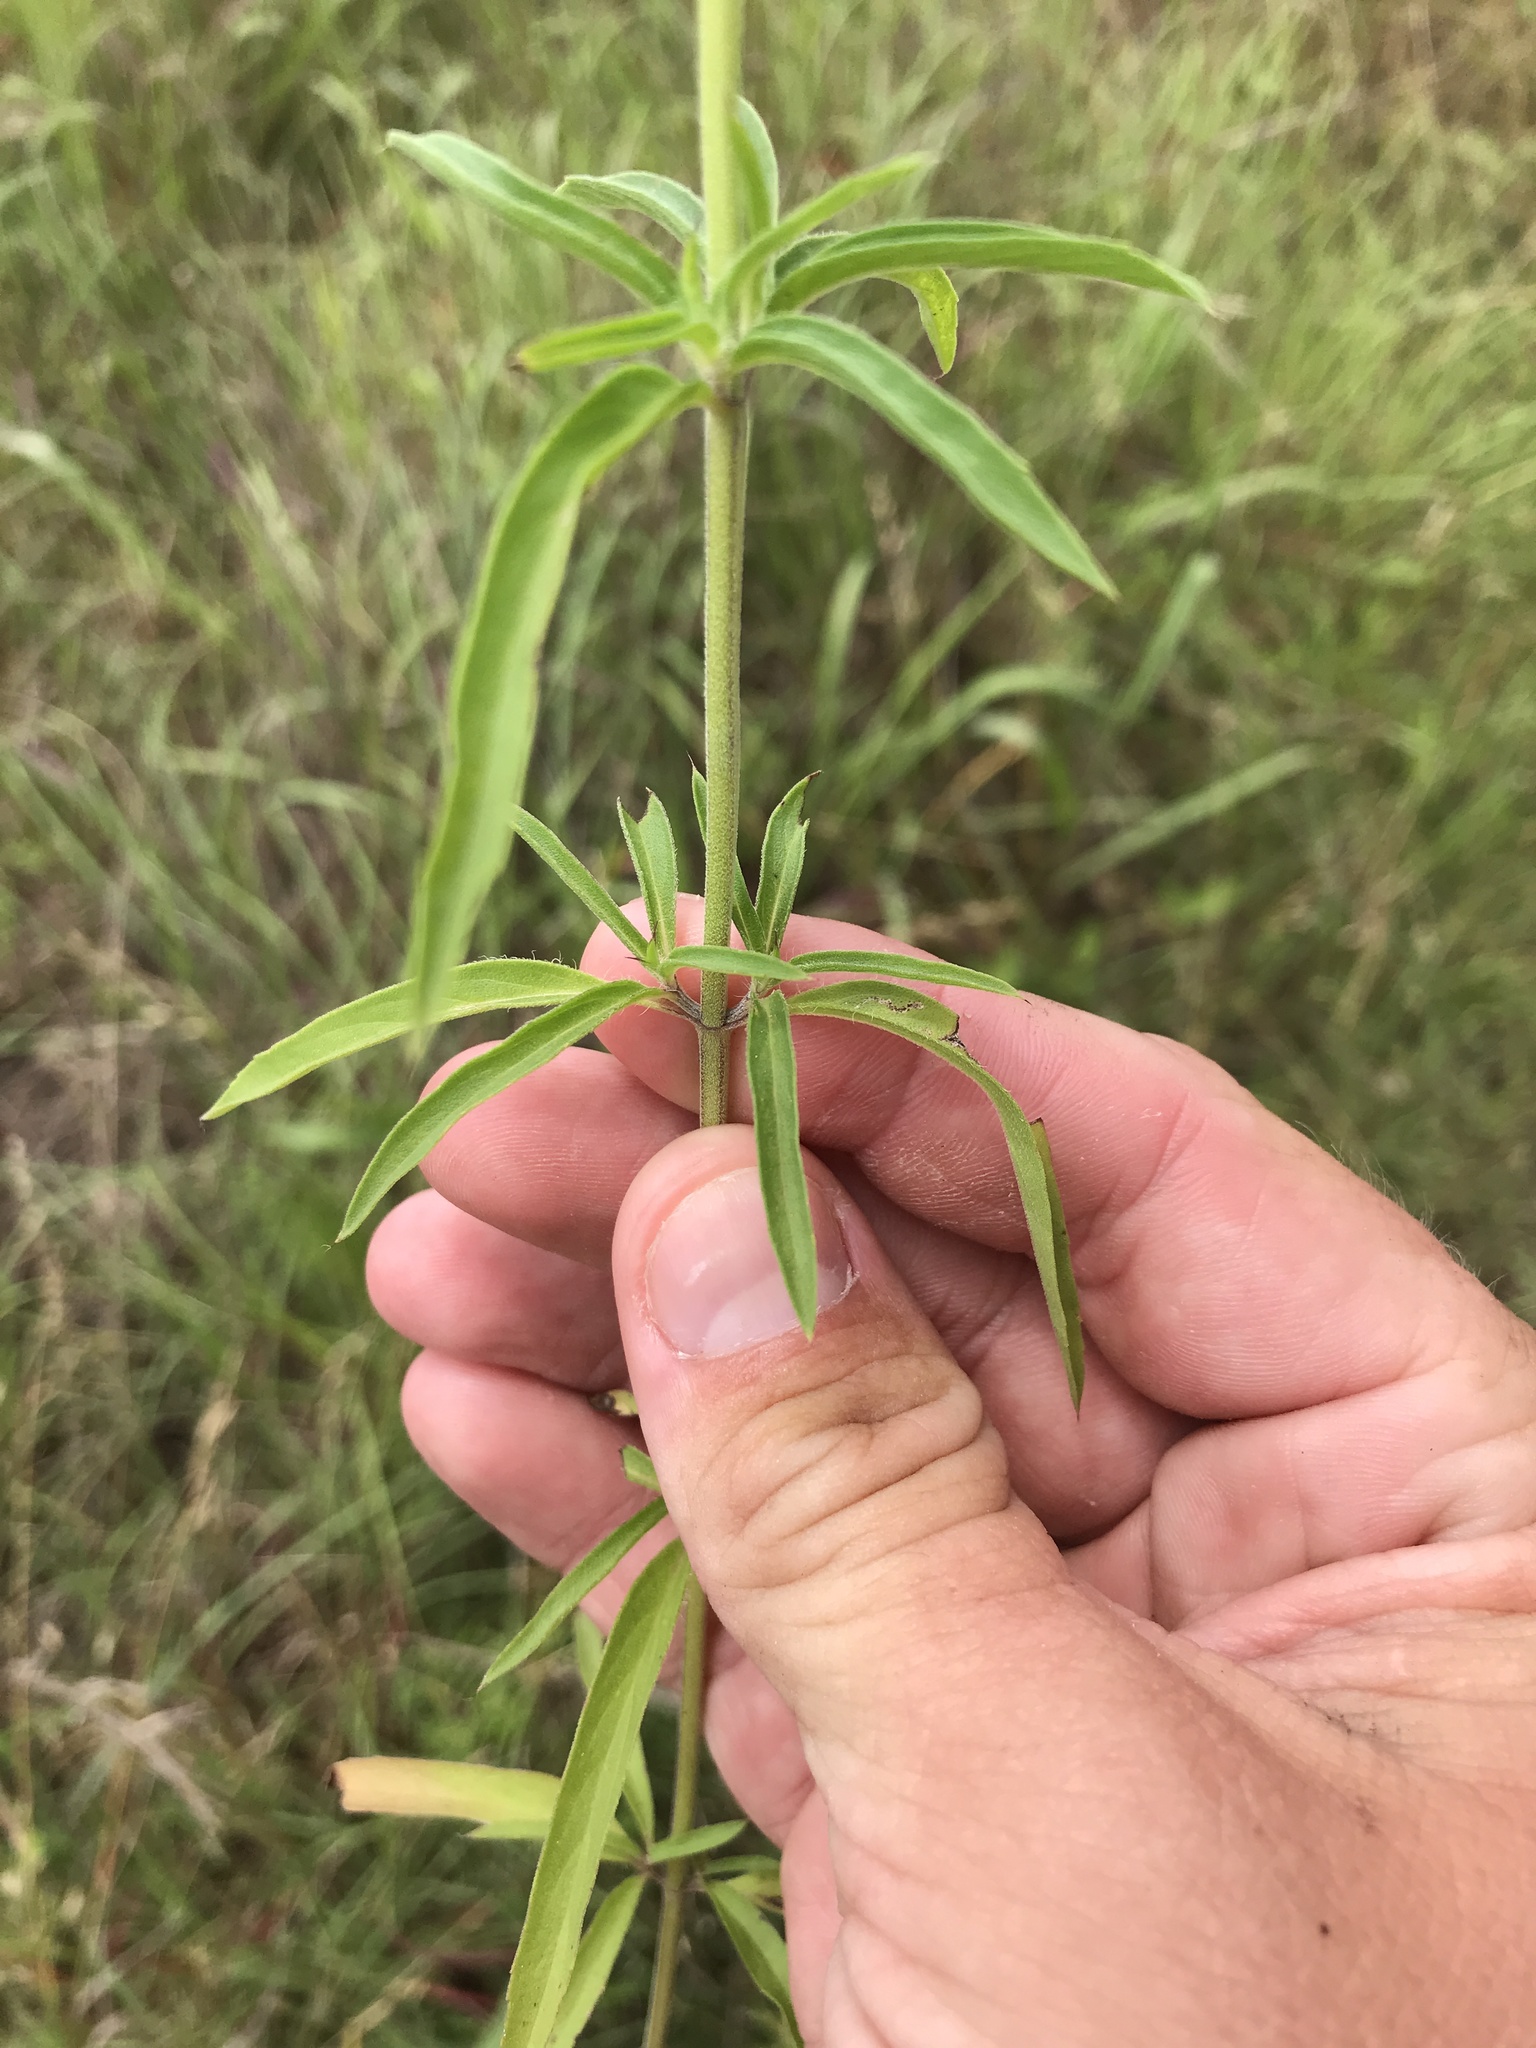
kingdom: Plantae
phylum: Tracheophyta
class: Magnoliopsida
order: Lamiales
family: Lamiaceae
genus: Monarda
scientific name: Monarda citriodora
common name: Lemon beebalm
